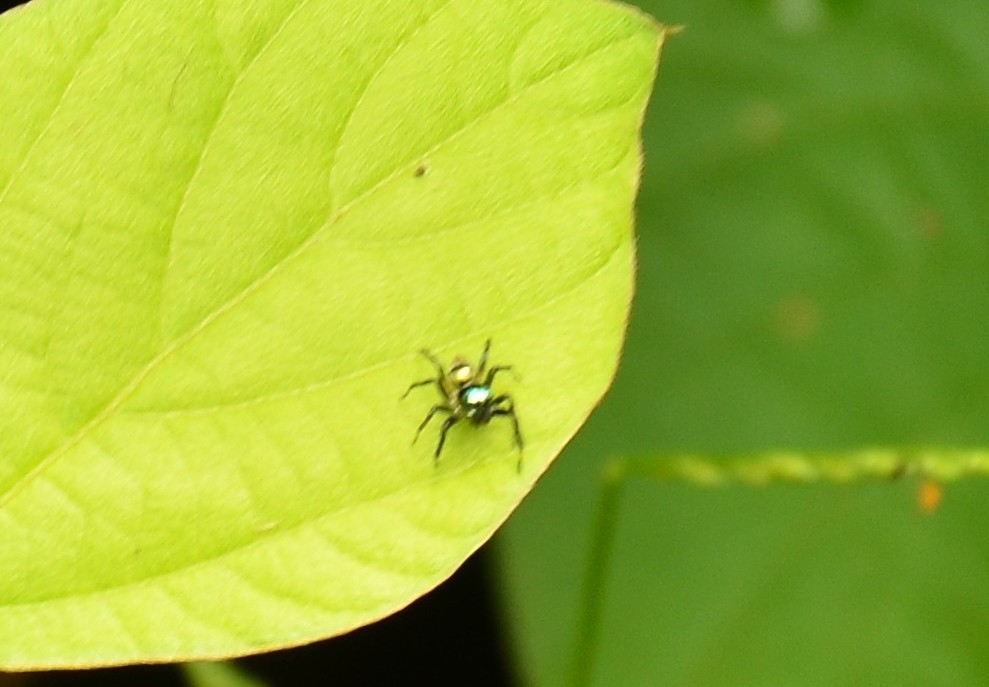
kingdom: Animalia
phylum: Arthropoda
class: Arachnida
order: Araneae
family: Salticidae
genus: Phintella
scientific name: Phintella vittata
